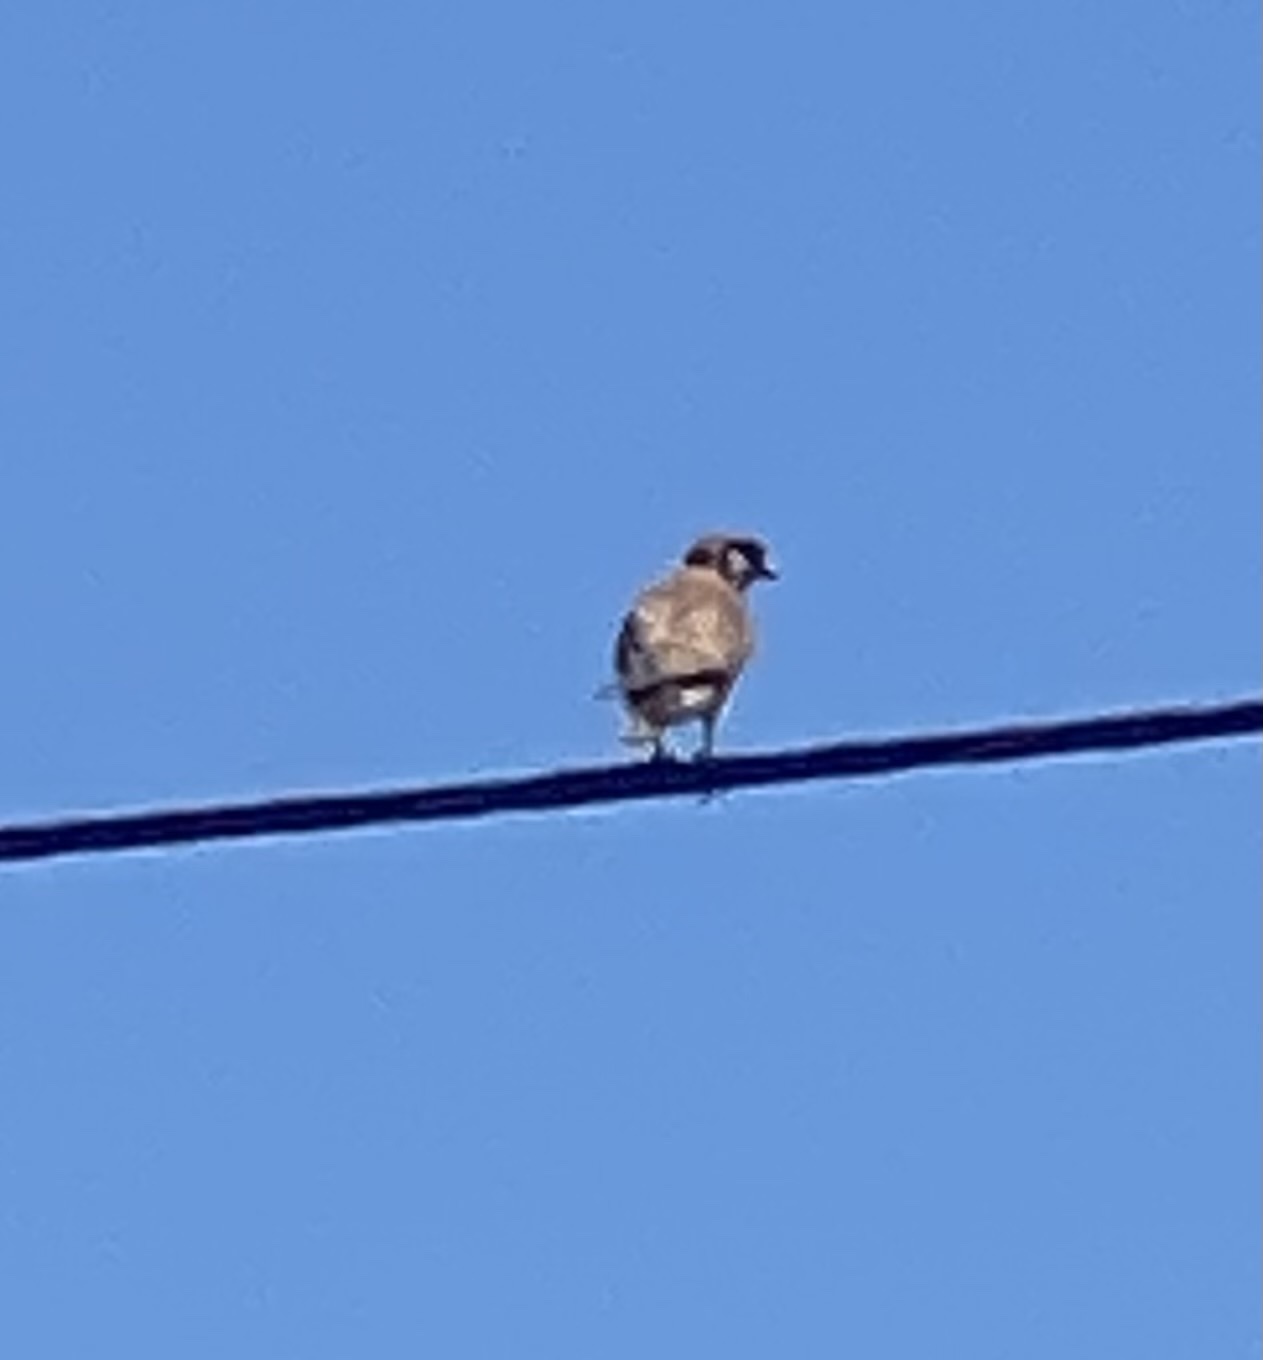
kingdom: Animalia
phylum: Chordata
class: Aves
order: Falconiformes
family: Falconidae
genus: Falco
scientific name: Falco sparverius
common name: American kestrel
